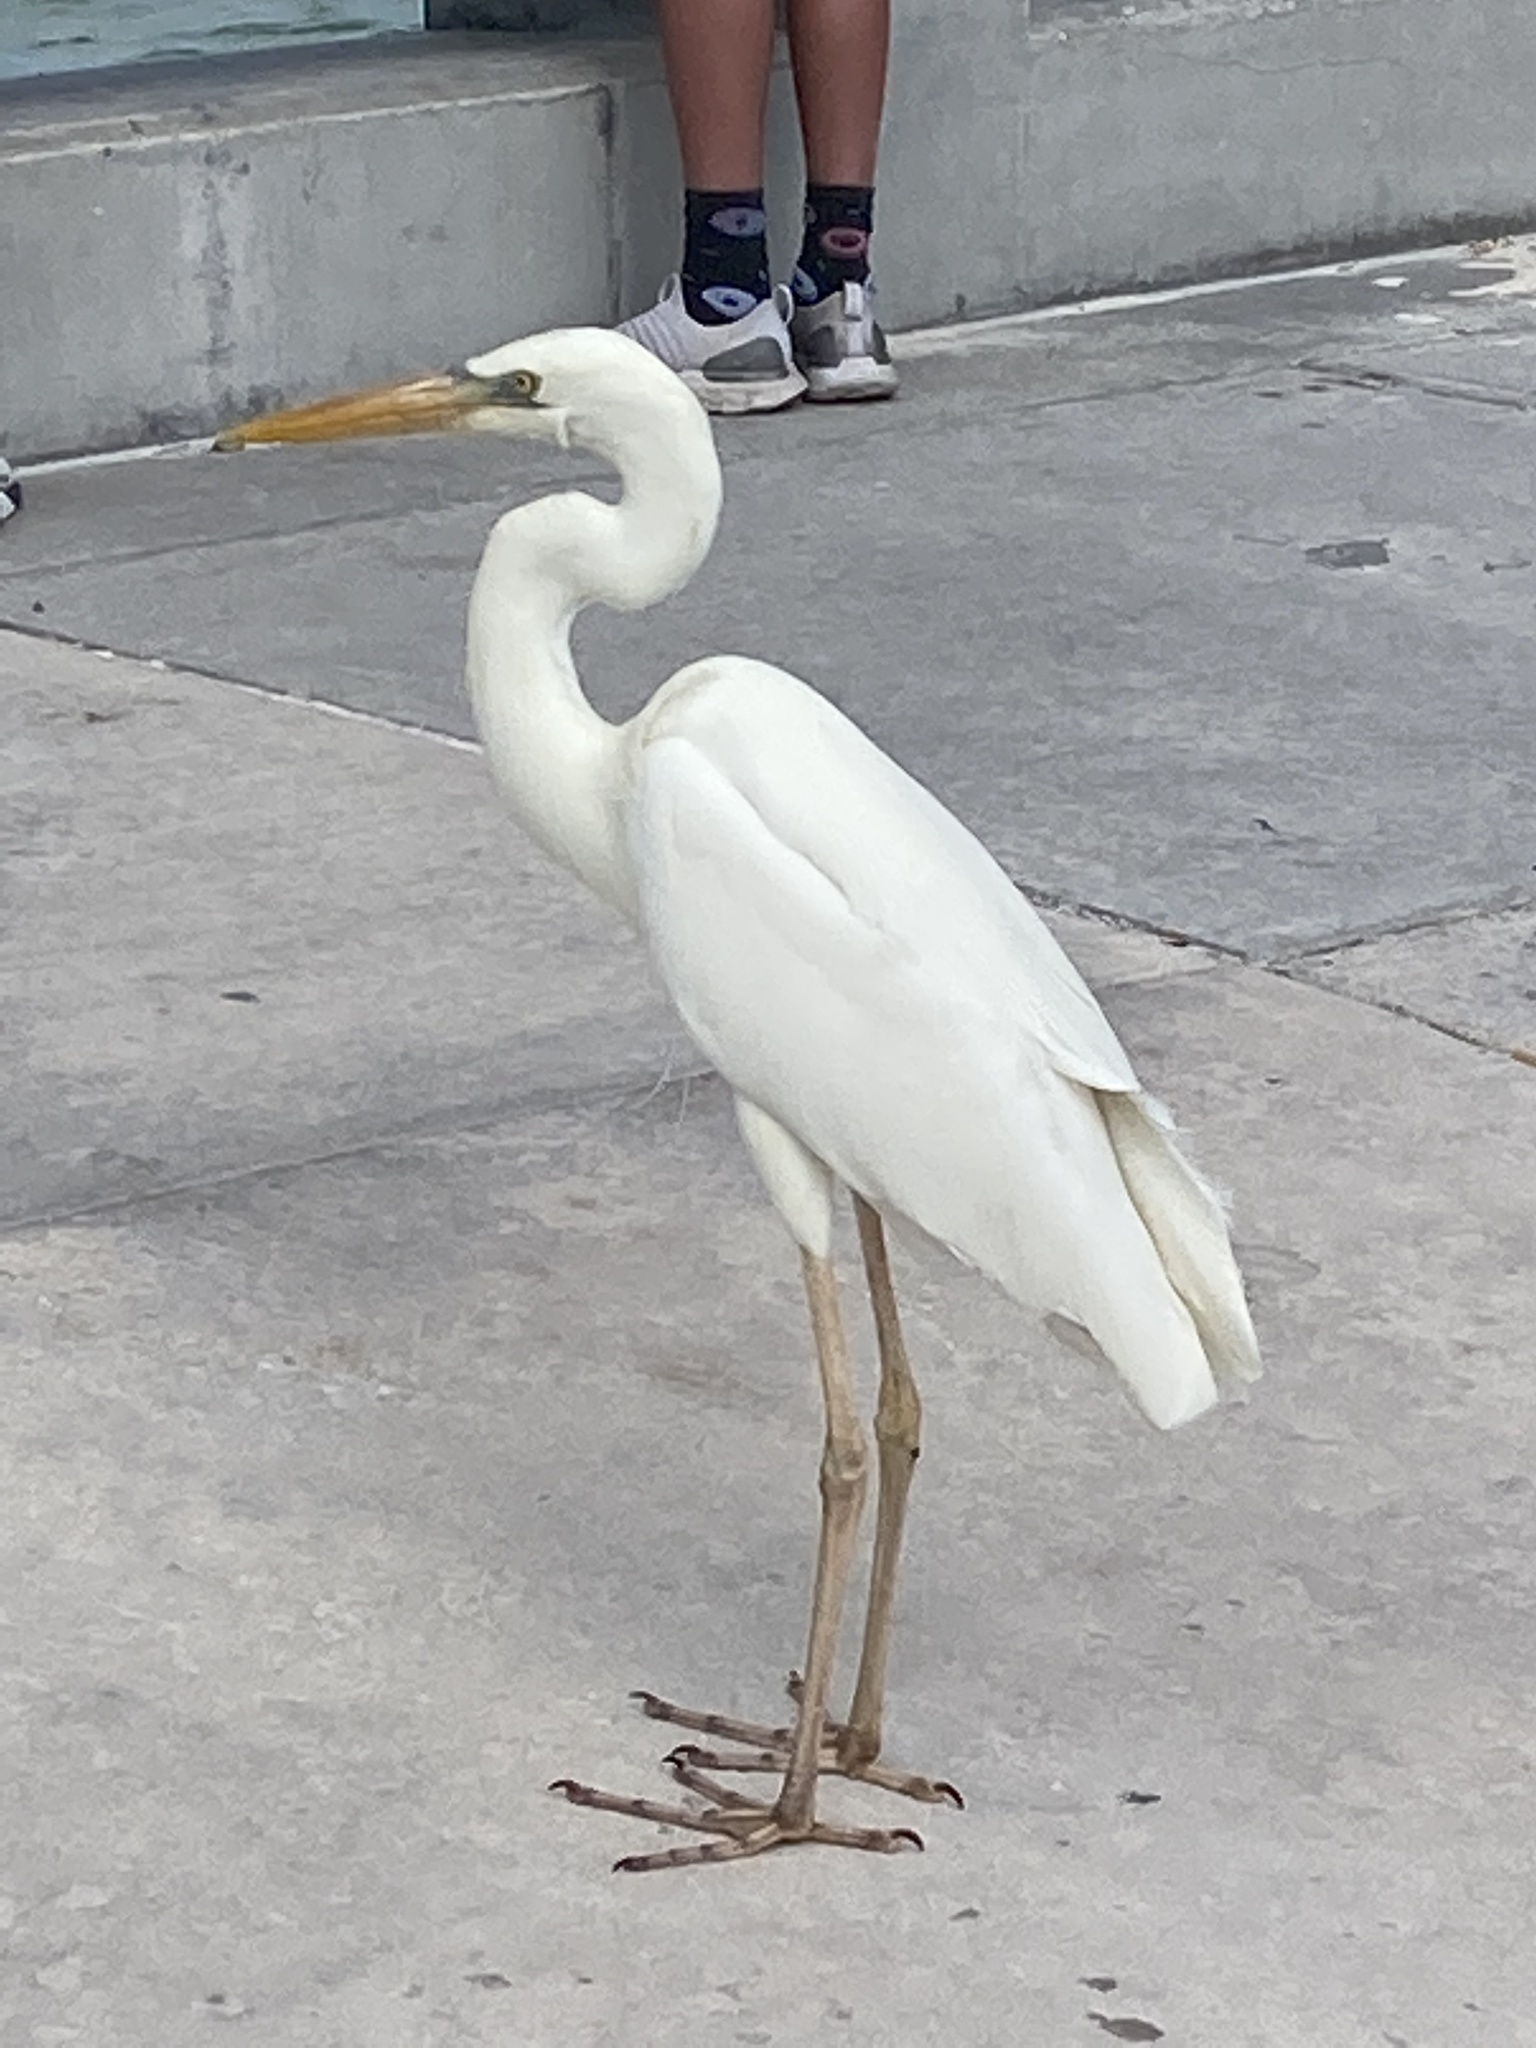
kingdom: Animalia
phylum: Chordata
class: Aves
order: Pelecaniformes
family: Ardeidae
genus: Ardea
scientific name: Ardea herodias
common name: Great blue heron
